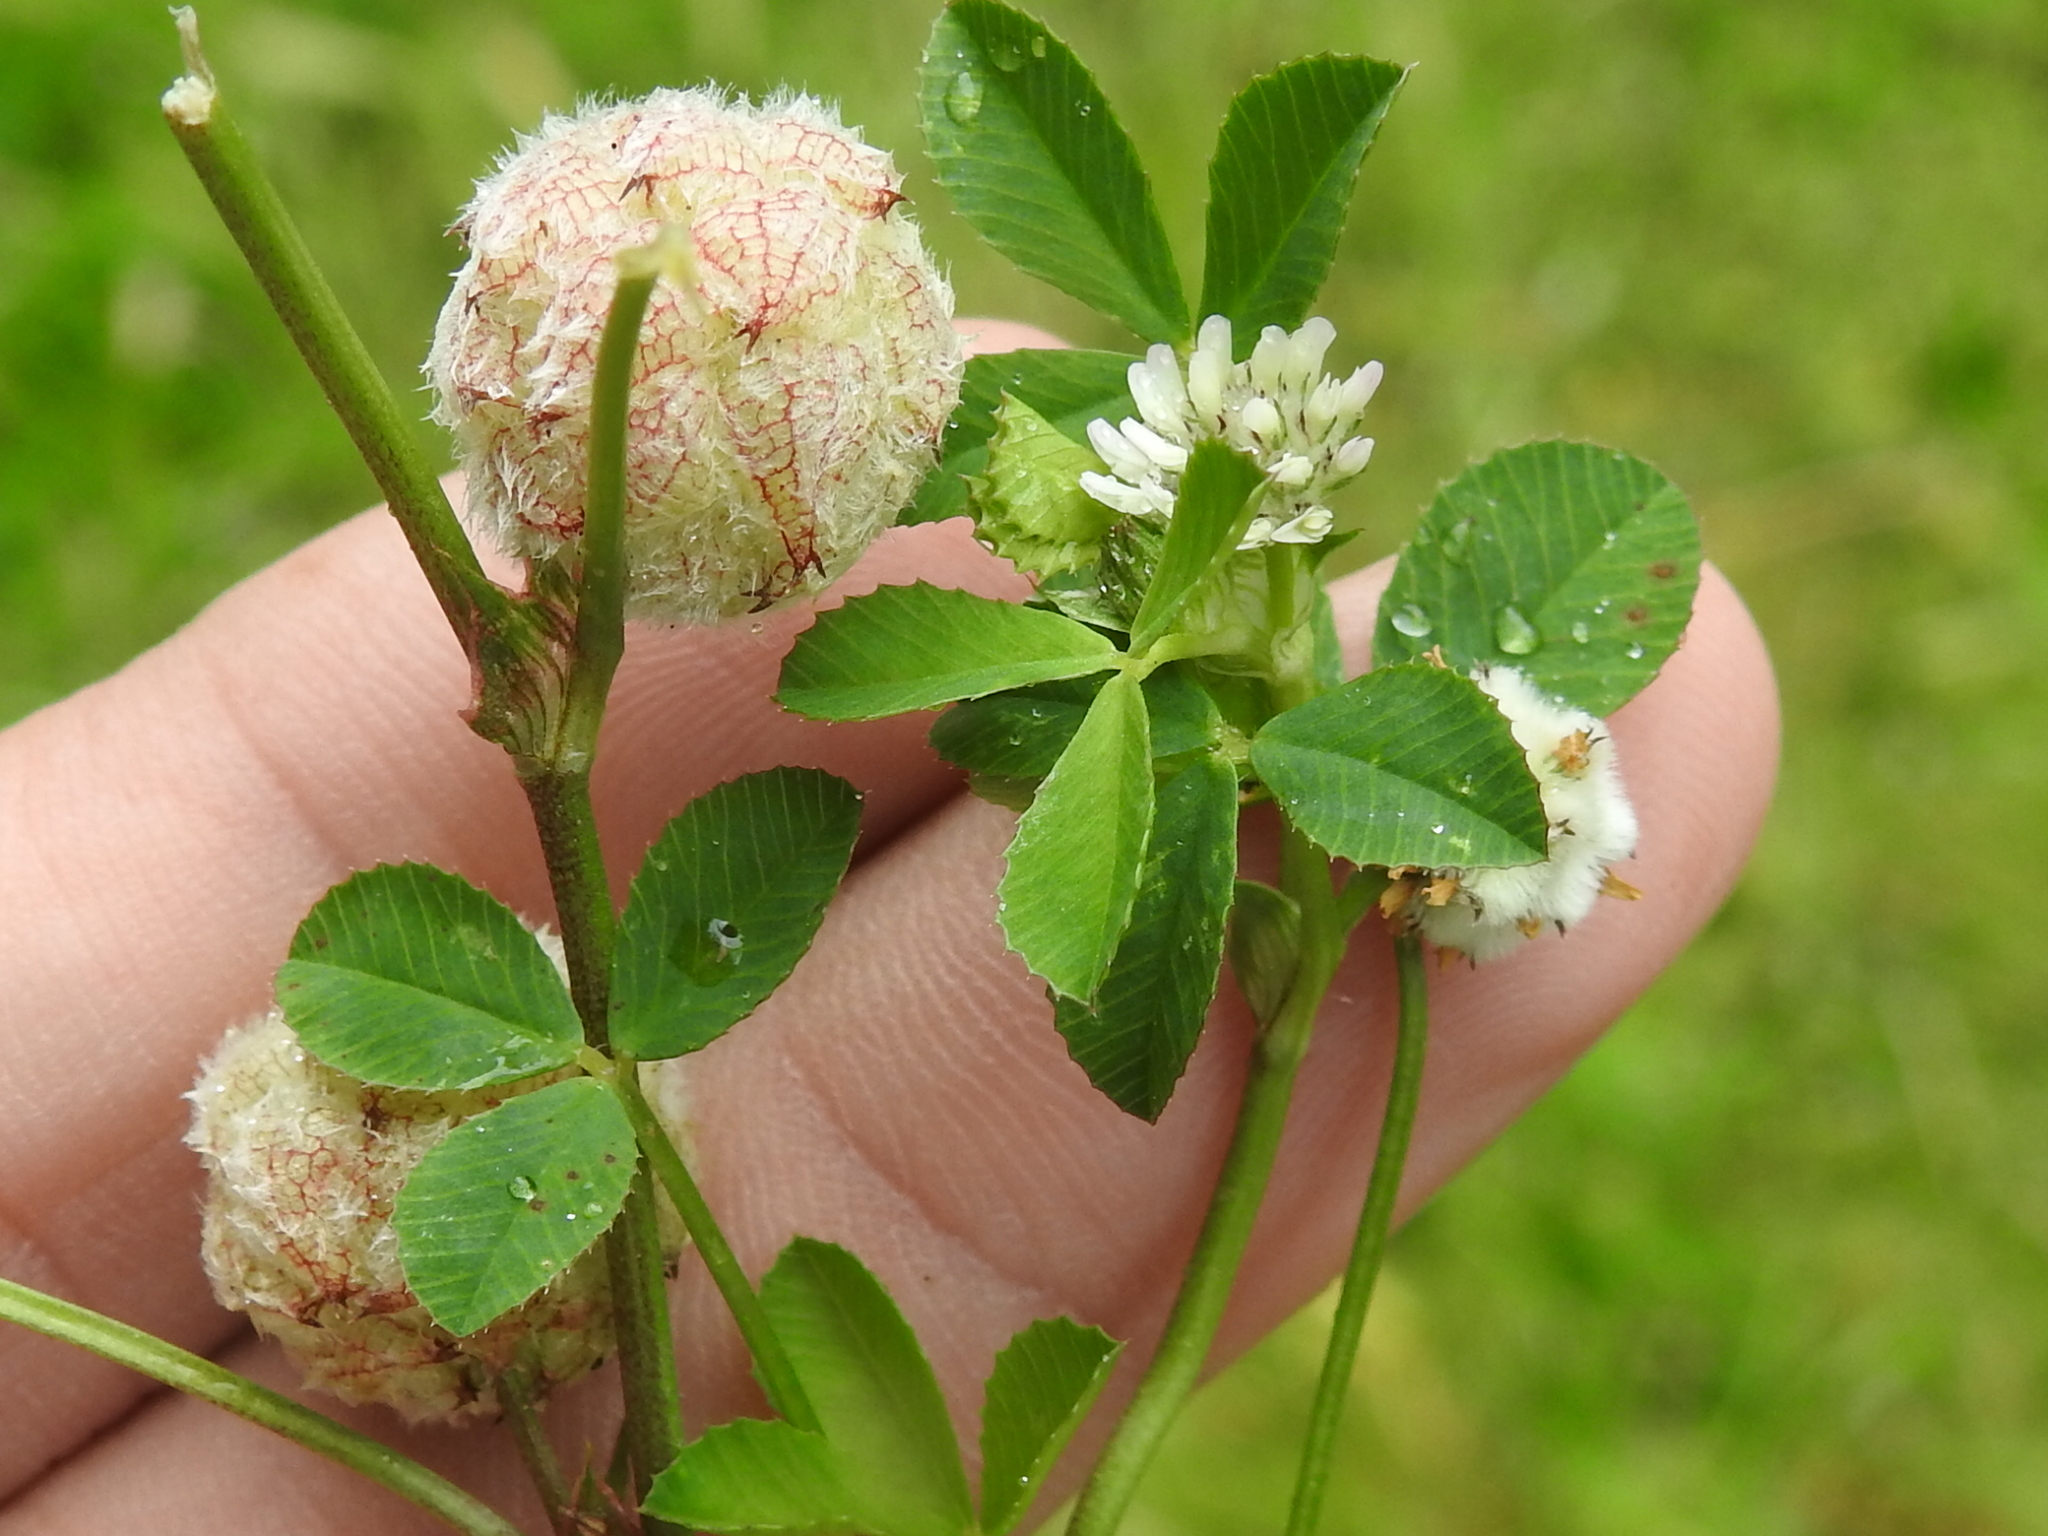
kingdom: Plantae
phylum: Tracheophyta
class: Magnoliopsida
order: Fabales
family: Fabaceae
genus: Trifolium
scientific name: Trifolium tomentosum
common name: Woolly clover
